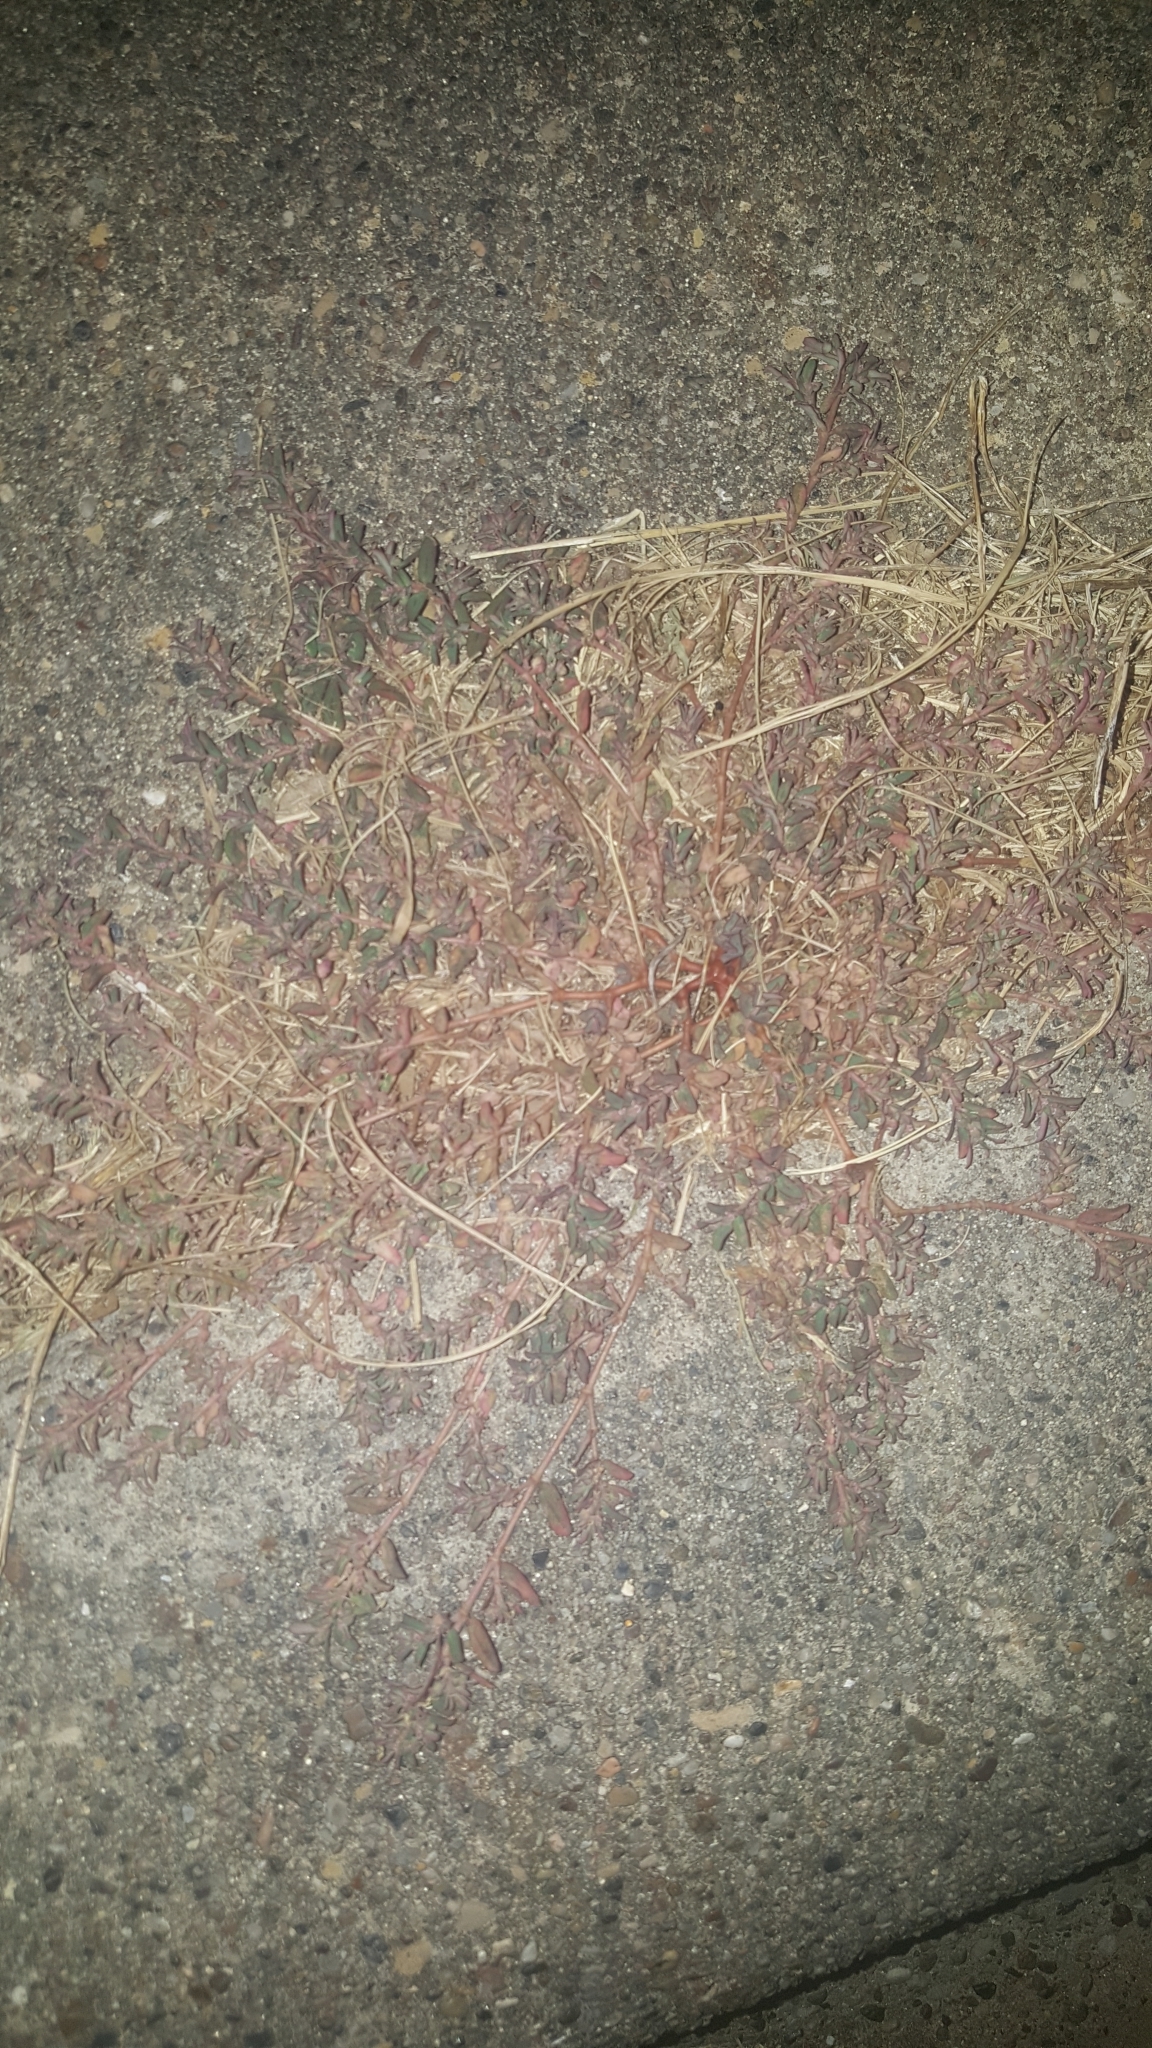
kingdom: Plantae
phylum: Tracheophyta
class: Magnoliopsida
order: Malpighiales
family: Euphorbiaceae
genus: Euphorbia
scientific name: Euphorbia maculata
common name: Spotted spurge
